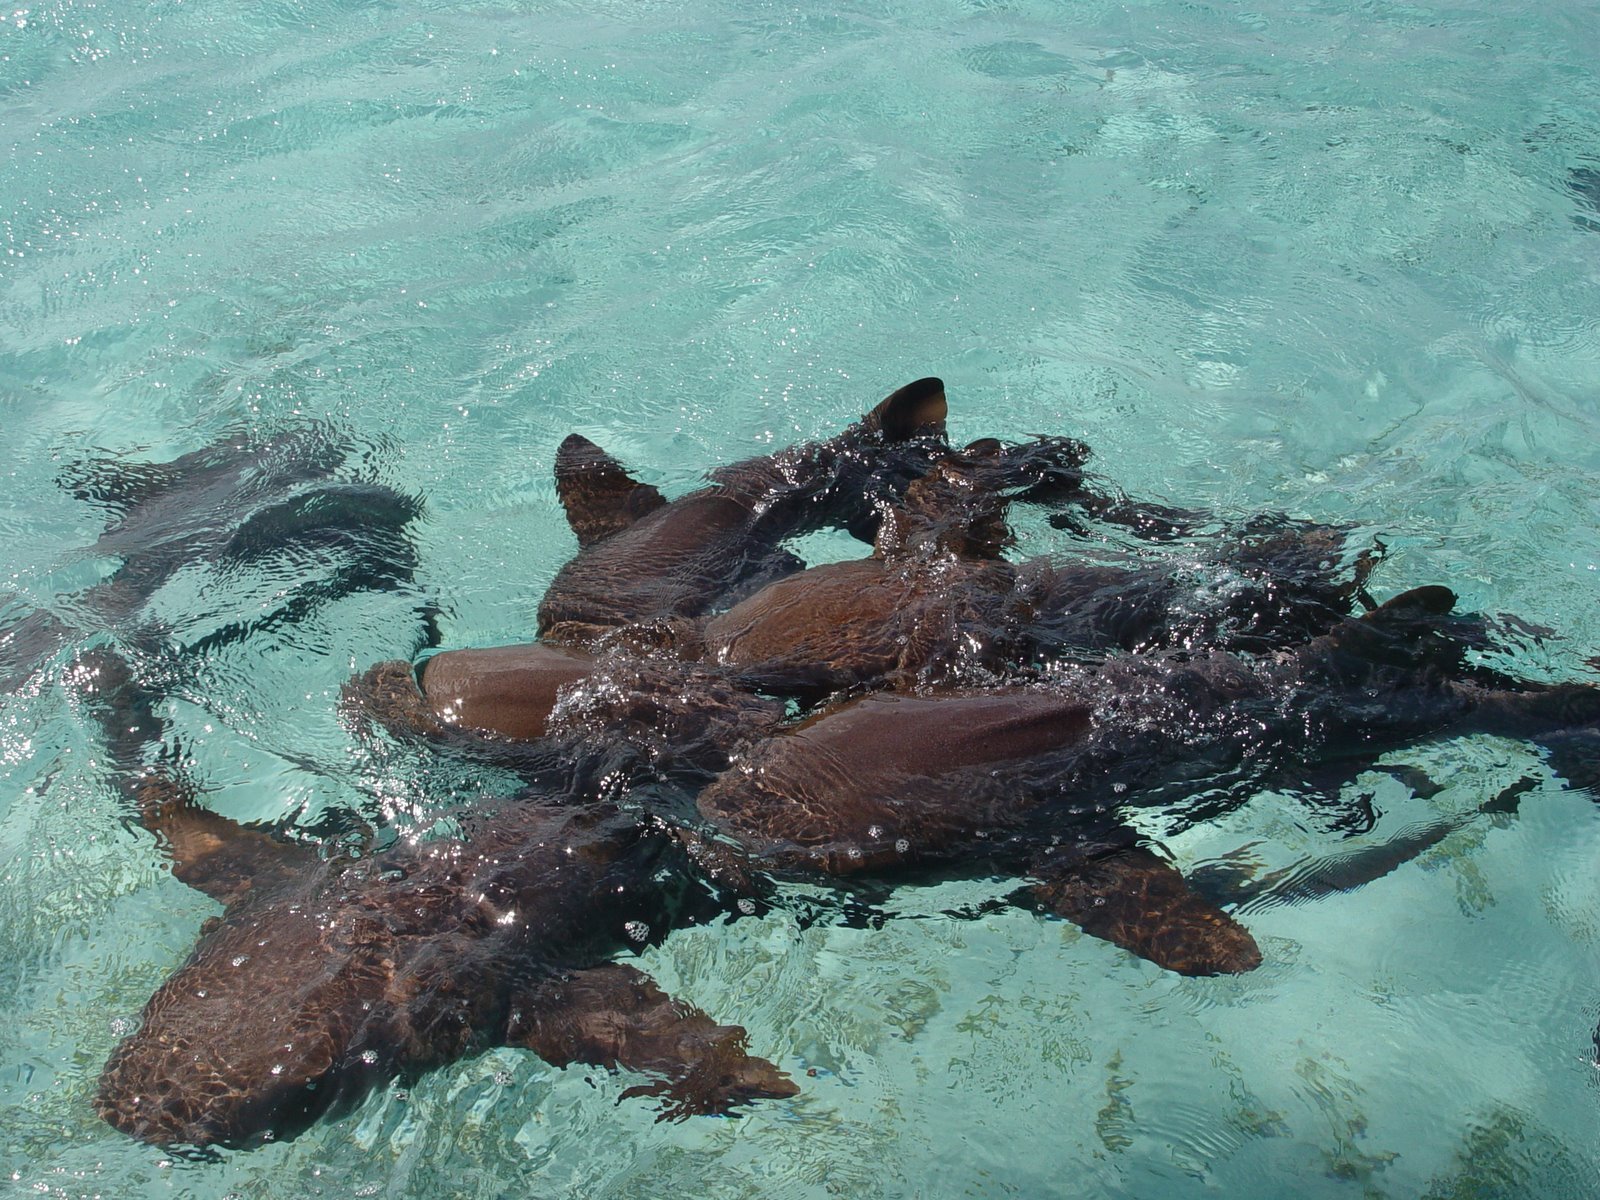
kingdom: Animalia
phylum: Chordata
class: Elasmobranchii
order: Orectolobiformes
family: Ginglymostomatidae
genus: Ginglymostoma
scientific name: Ginglymostoma cirratum
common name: Nurse shark
